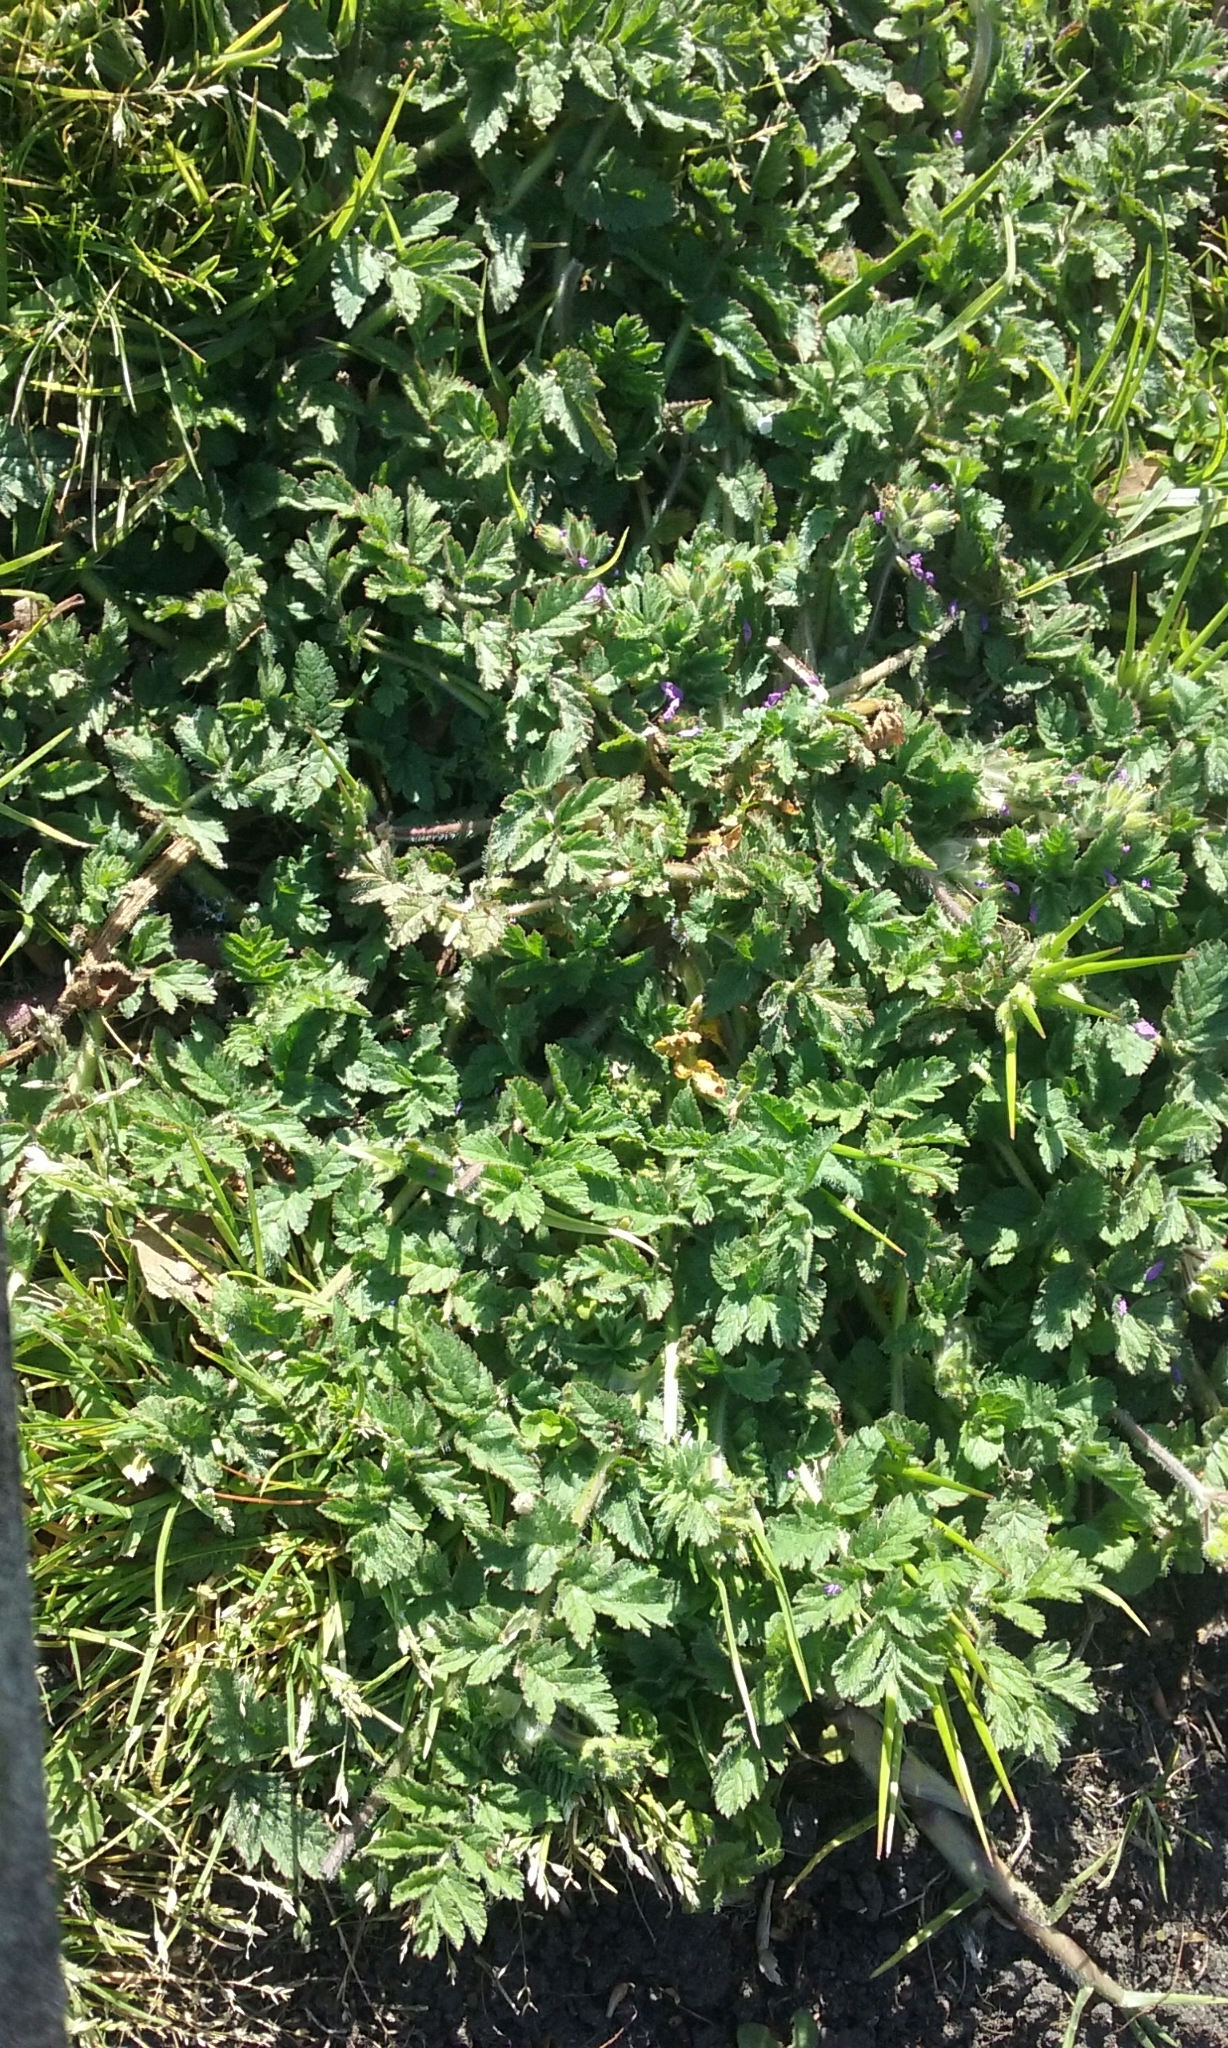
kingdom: Plantae
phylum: Tracheophyta
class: Magnoliopsida
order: Geraniales
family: Geraniaceae
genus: Erodium
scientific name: Erodium moschatum
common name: Musk stork's-bill
